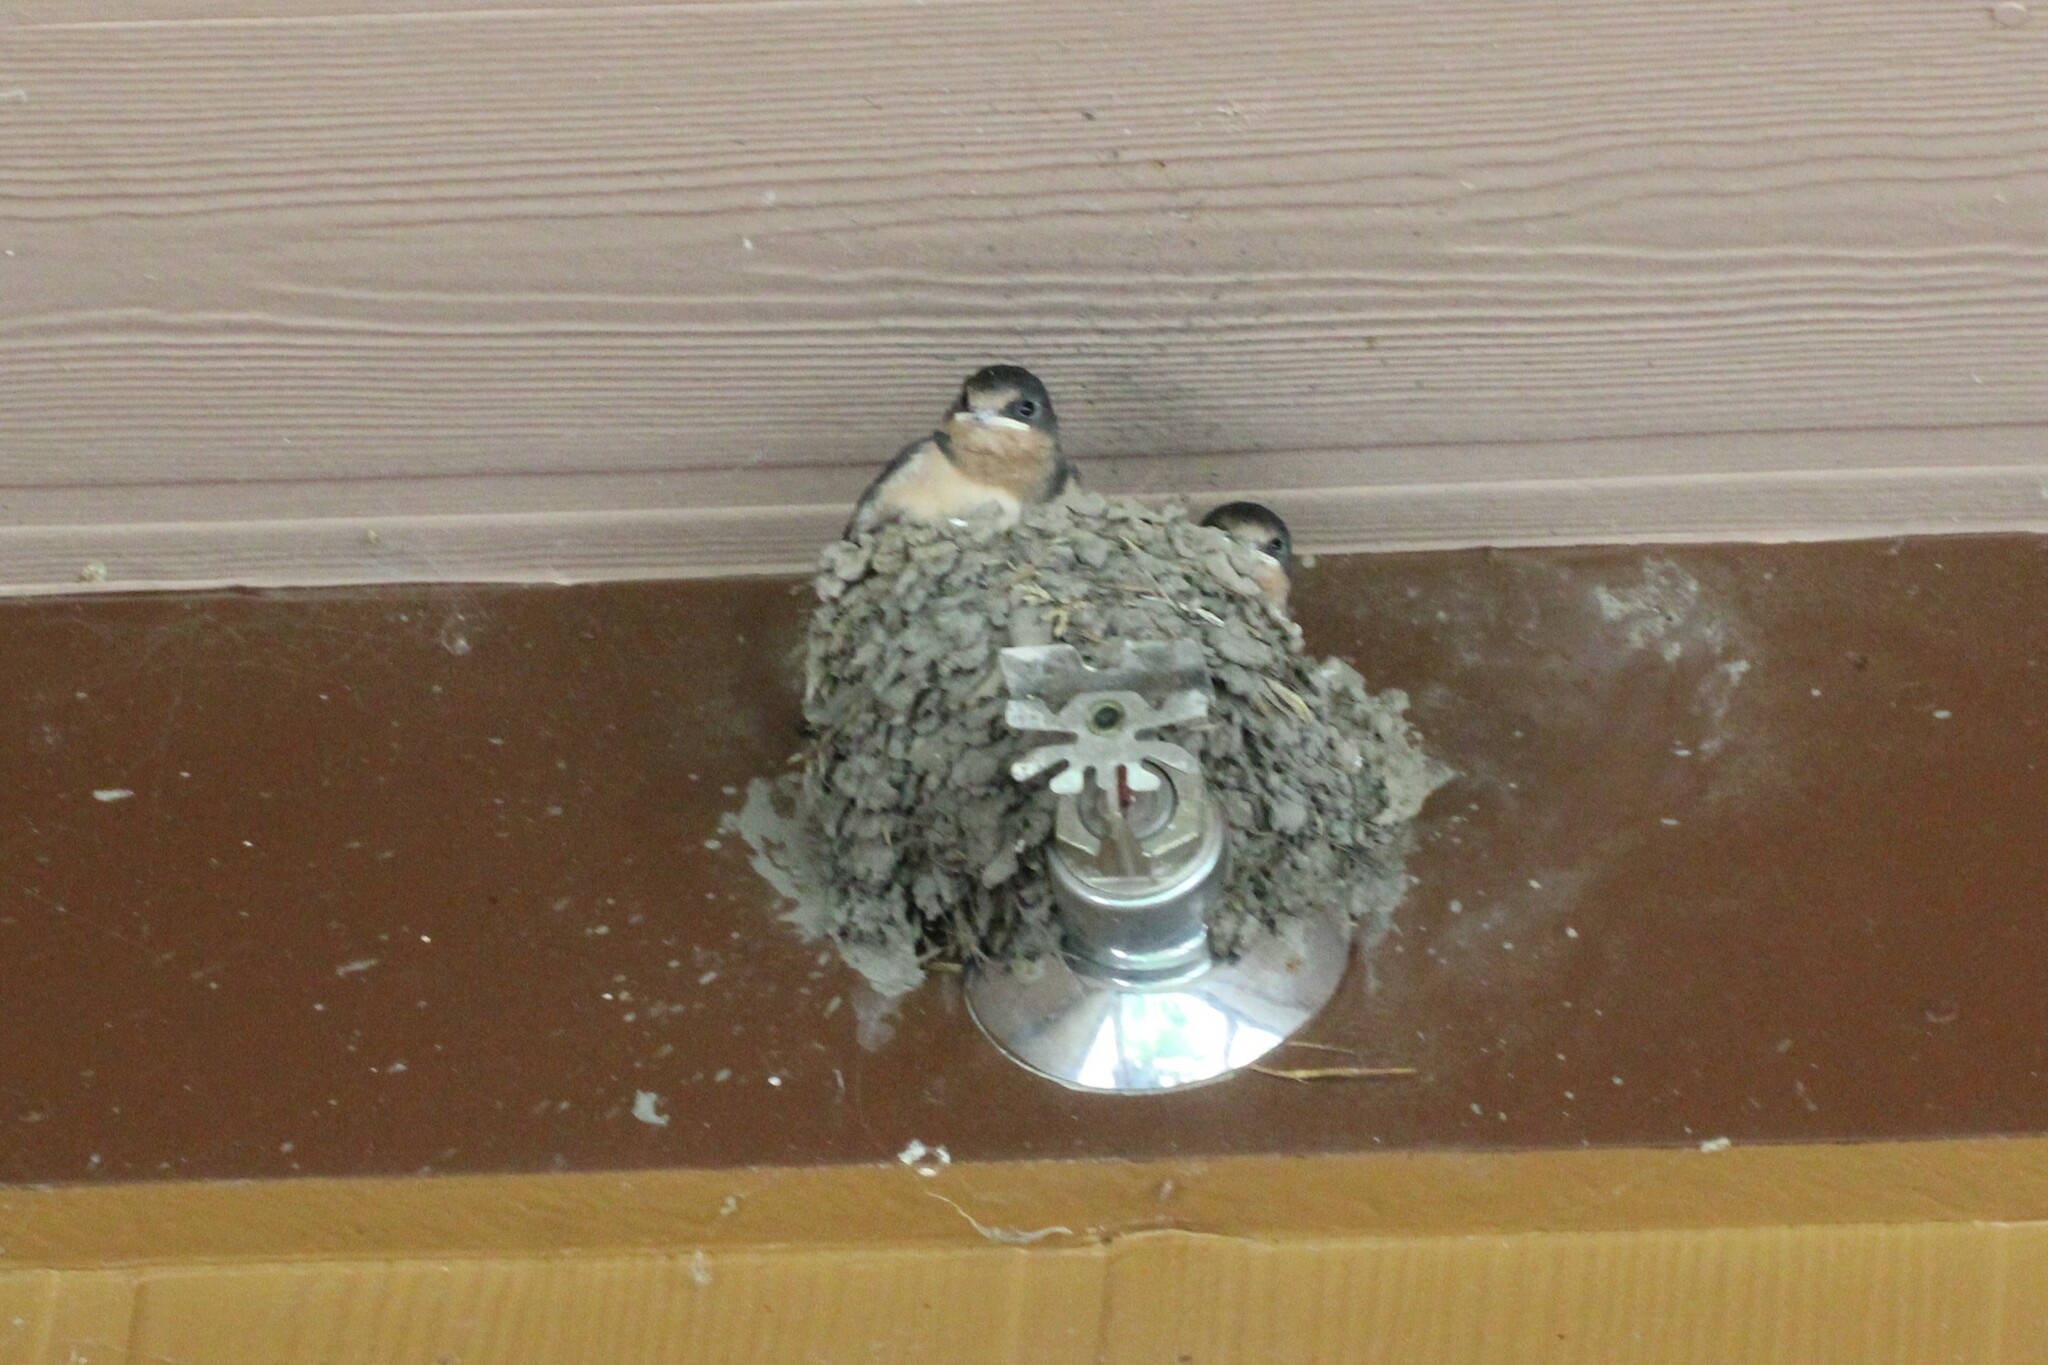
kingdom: Animalia
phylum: Chordata
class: Aves
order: Passeriformes
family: Hirundinidae
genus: Hirundo
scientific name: Hirundo rustica
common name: Barn swallow
